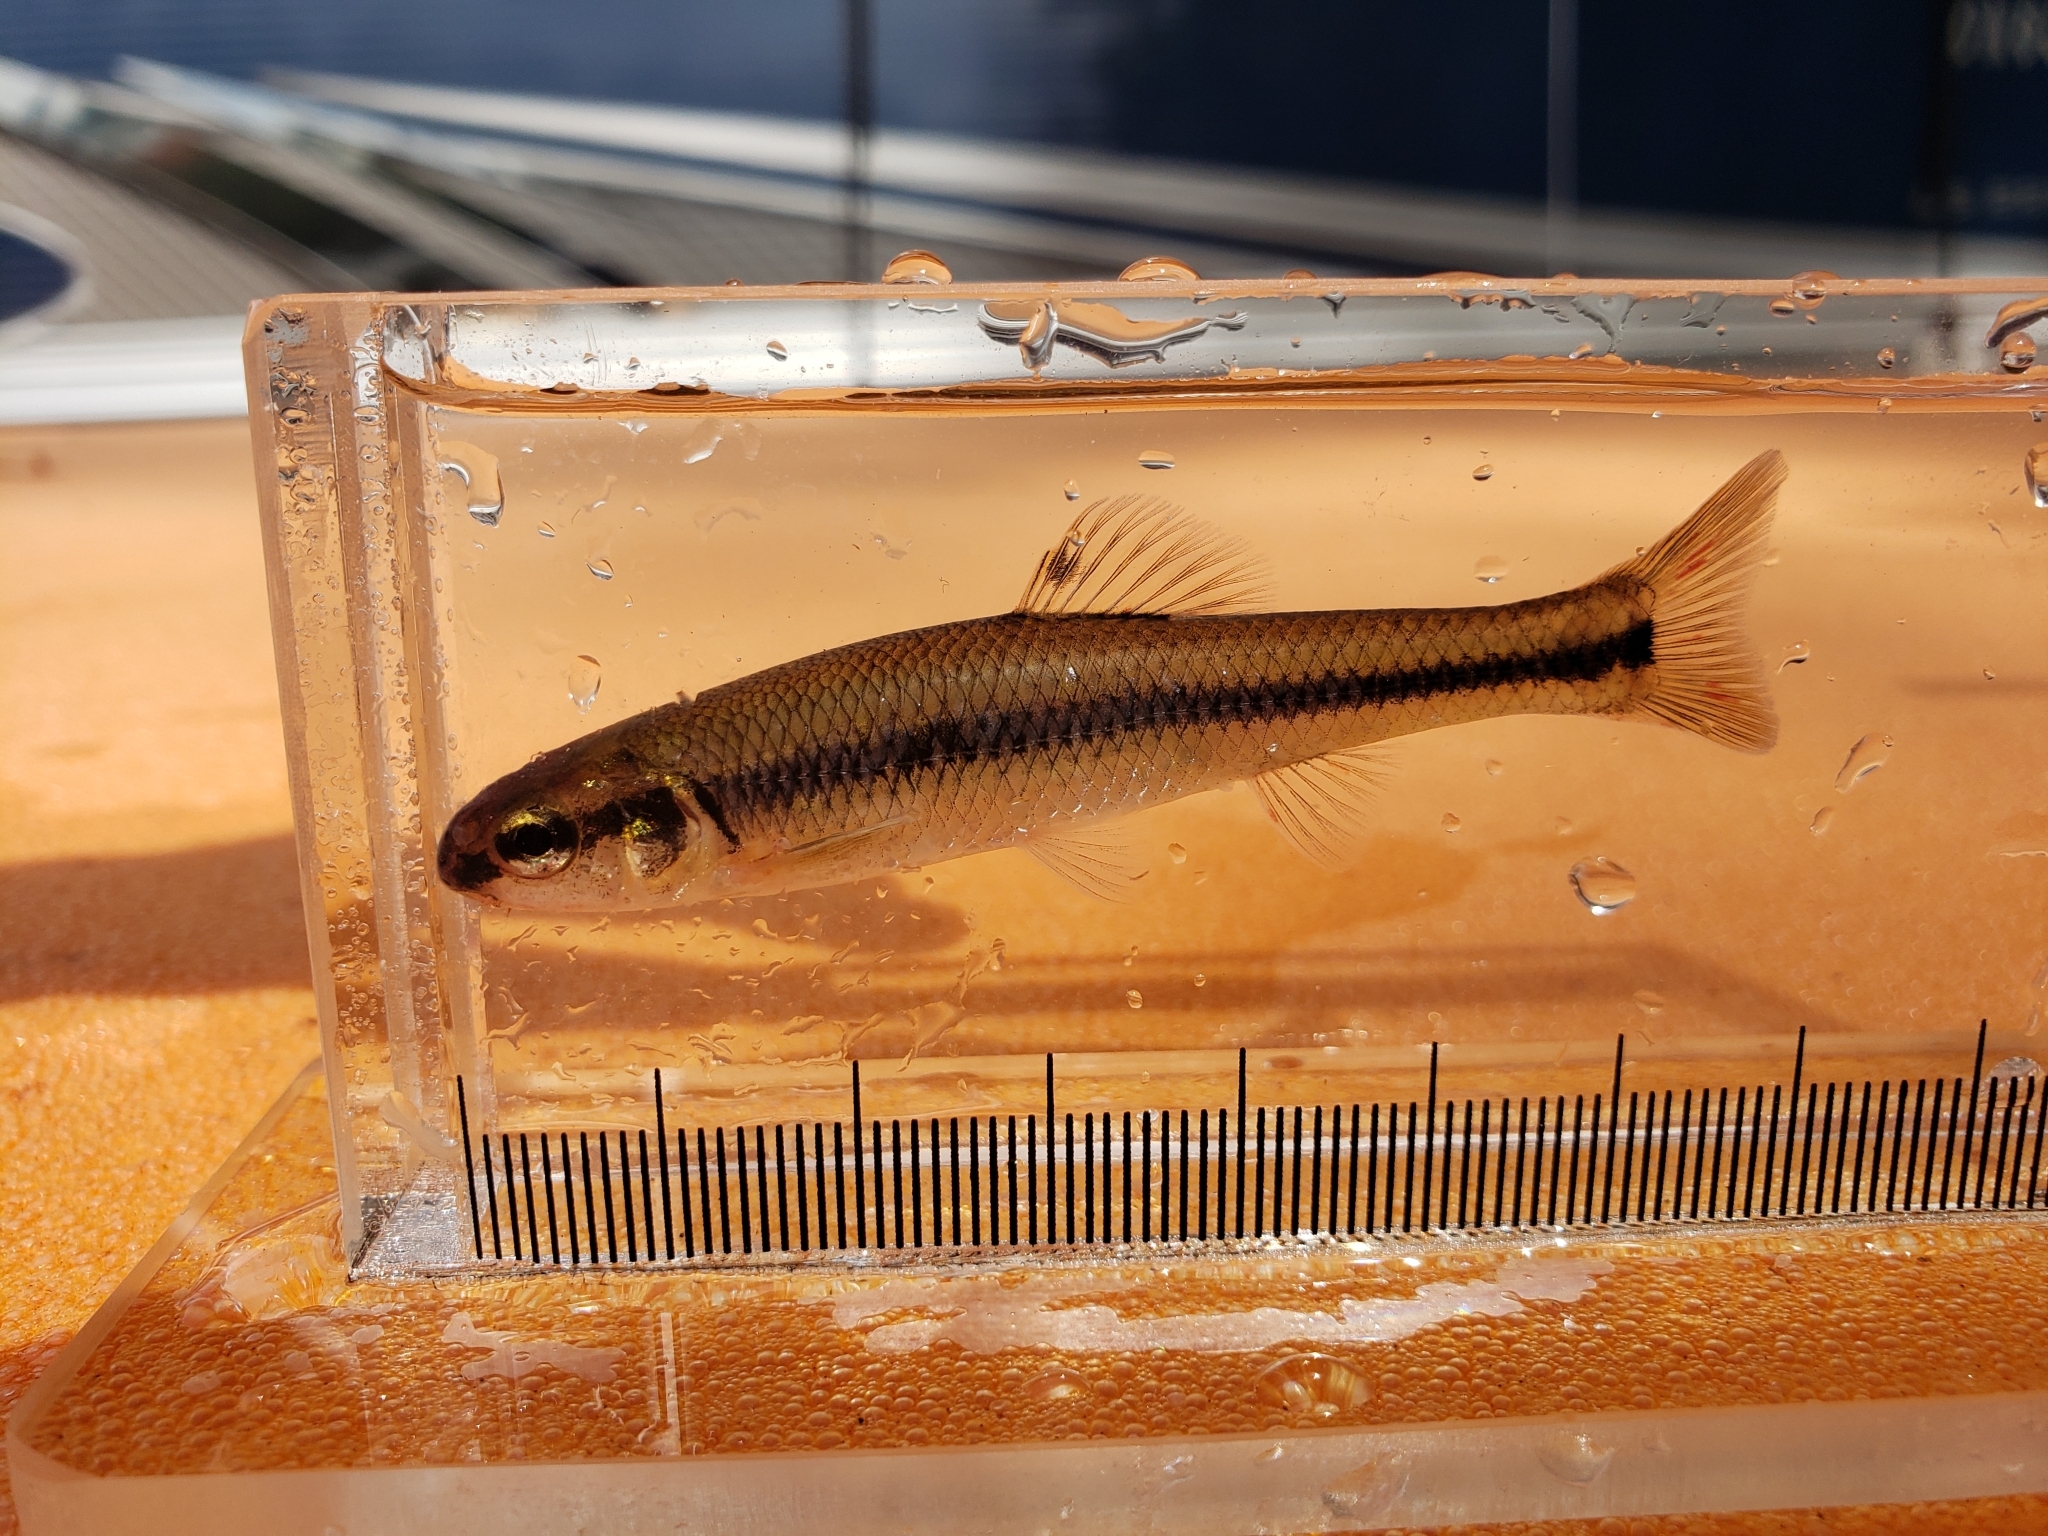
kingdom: Animalia
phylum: Chordata
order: Cypriniformes
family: Cyprinidae
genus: Pimephales
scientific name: Pimephales notatus
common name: Bluntnose minnow
